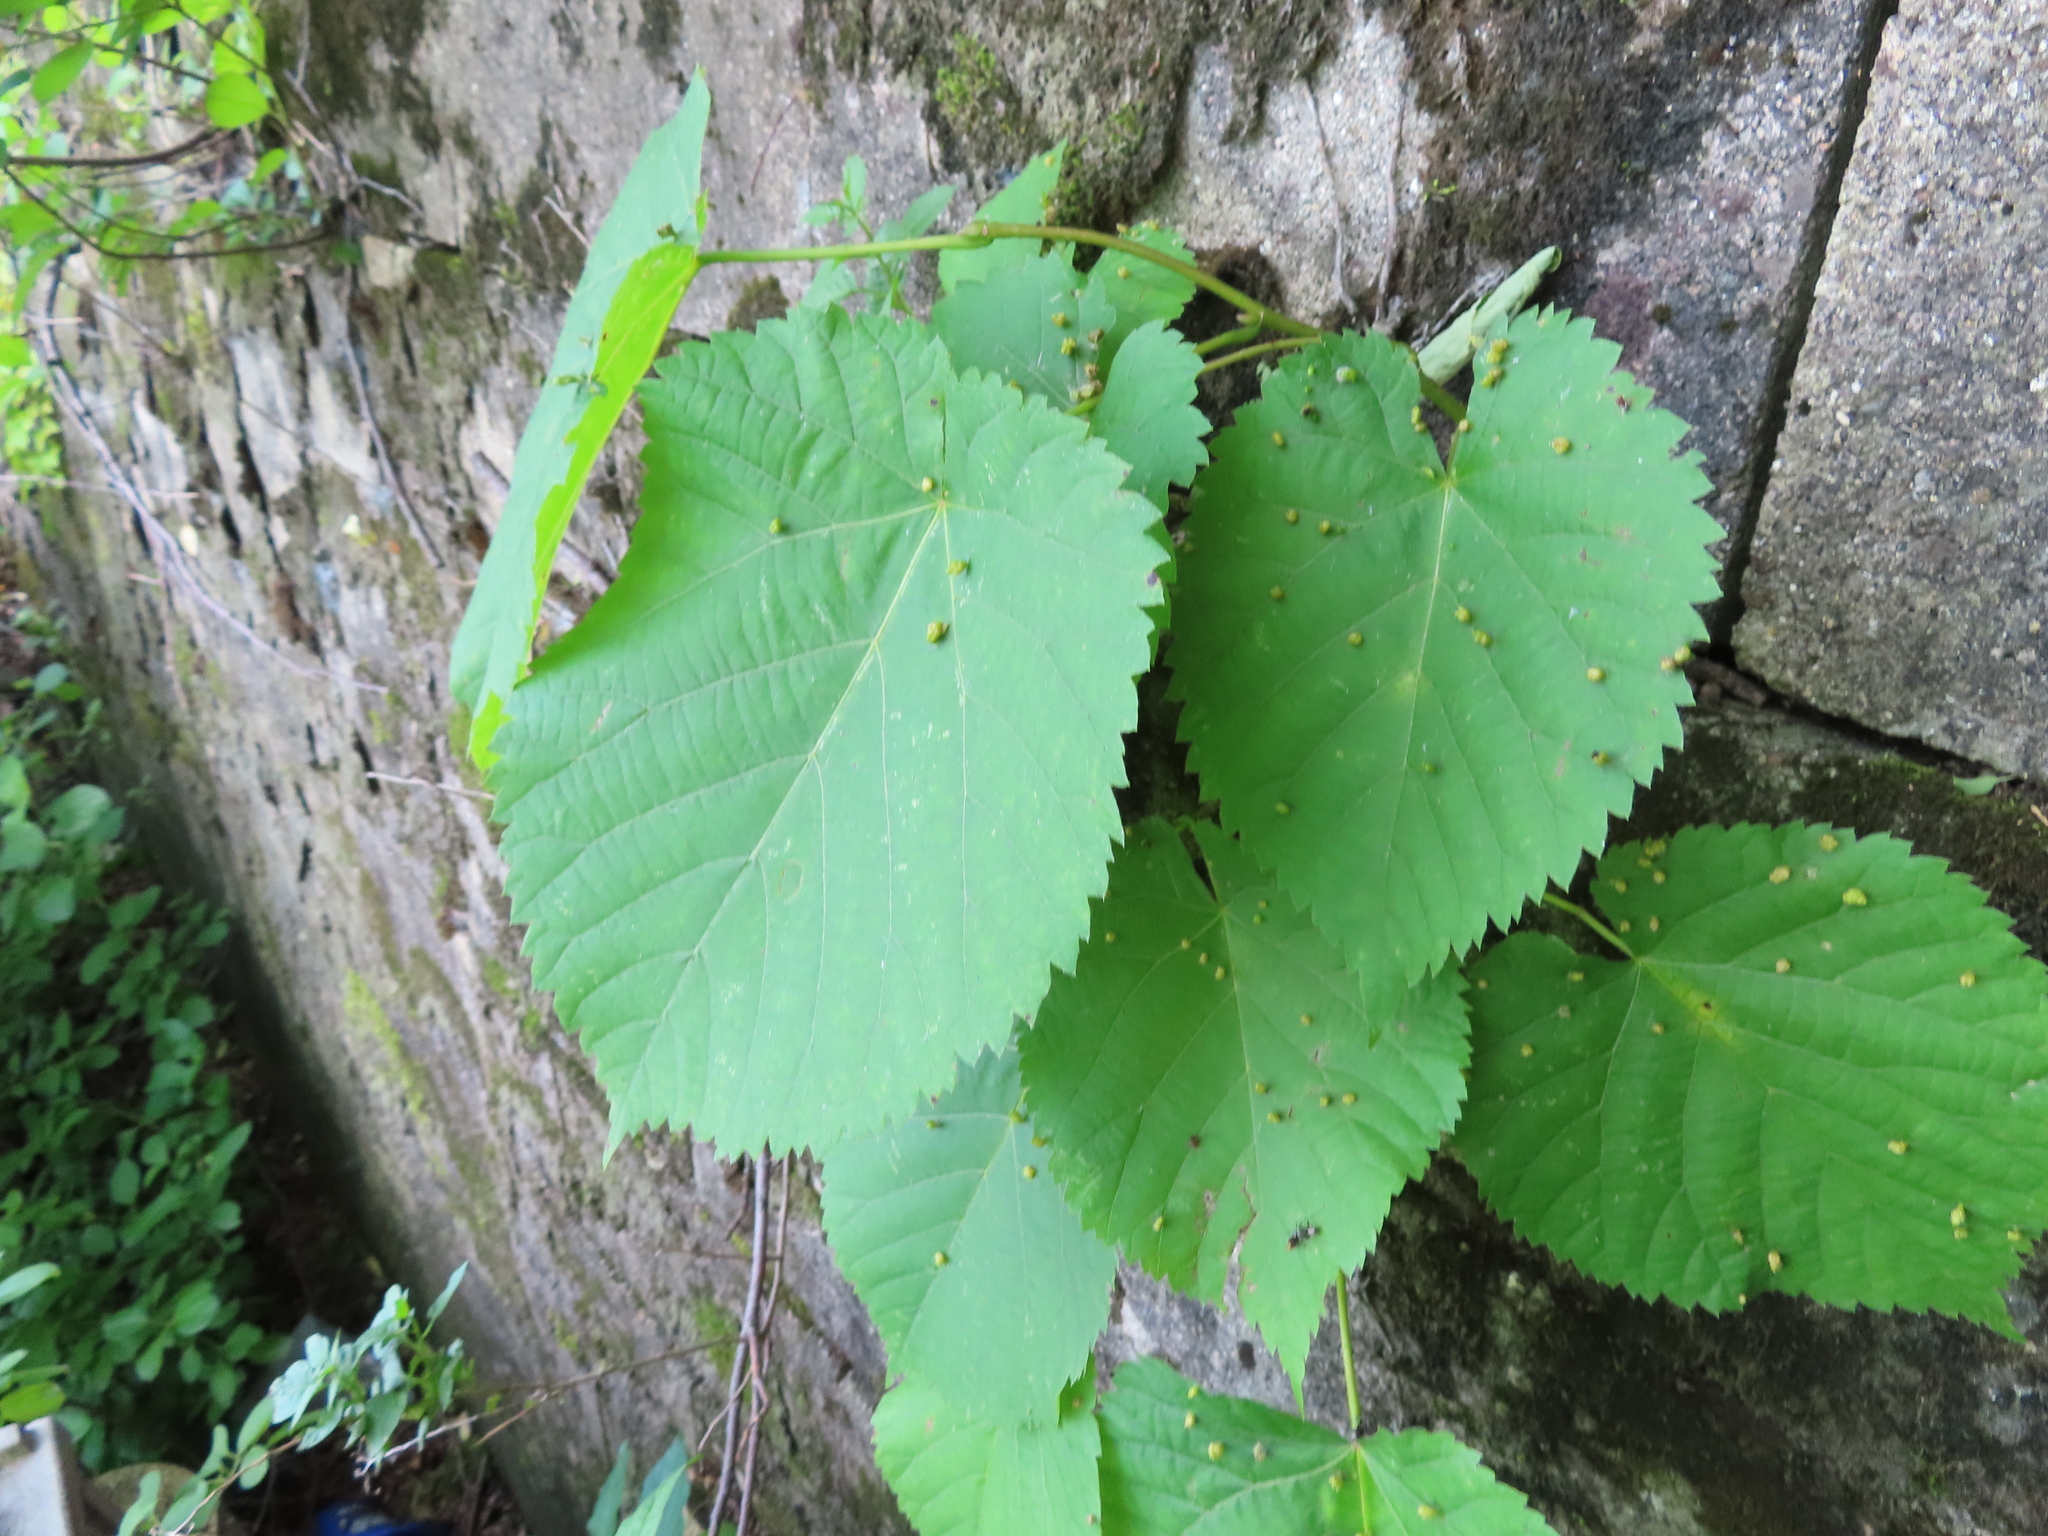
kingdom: Plantae
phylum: Tracheophyta
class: Magnoliopsida
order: Malvales
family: Malvaceae
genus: Tilia
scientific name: Tilia americana
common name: Basswood
